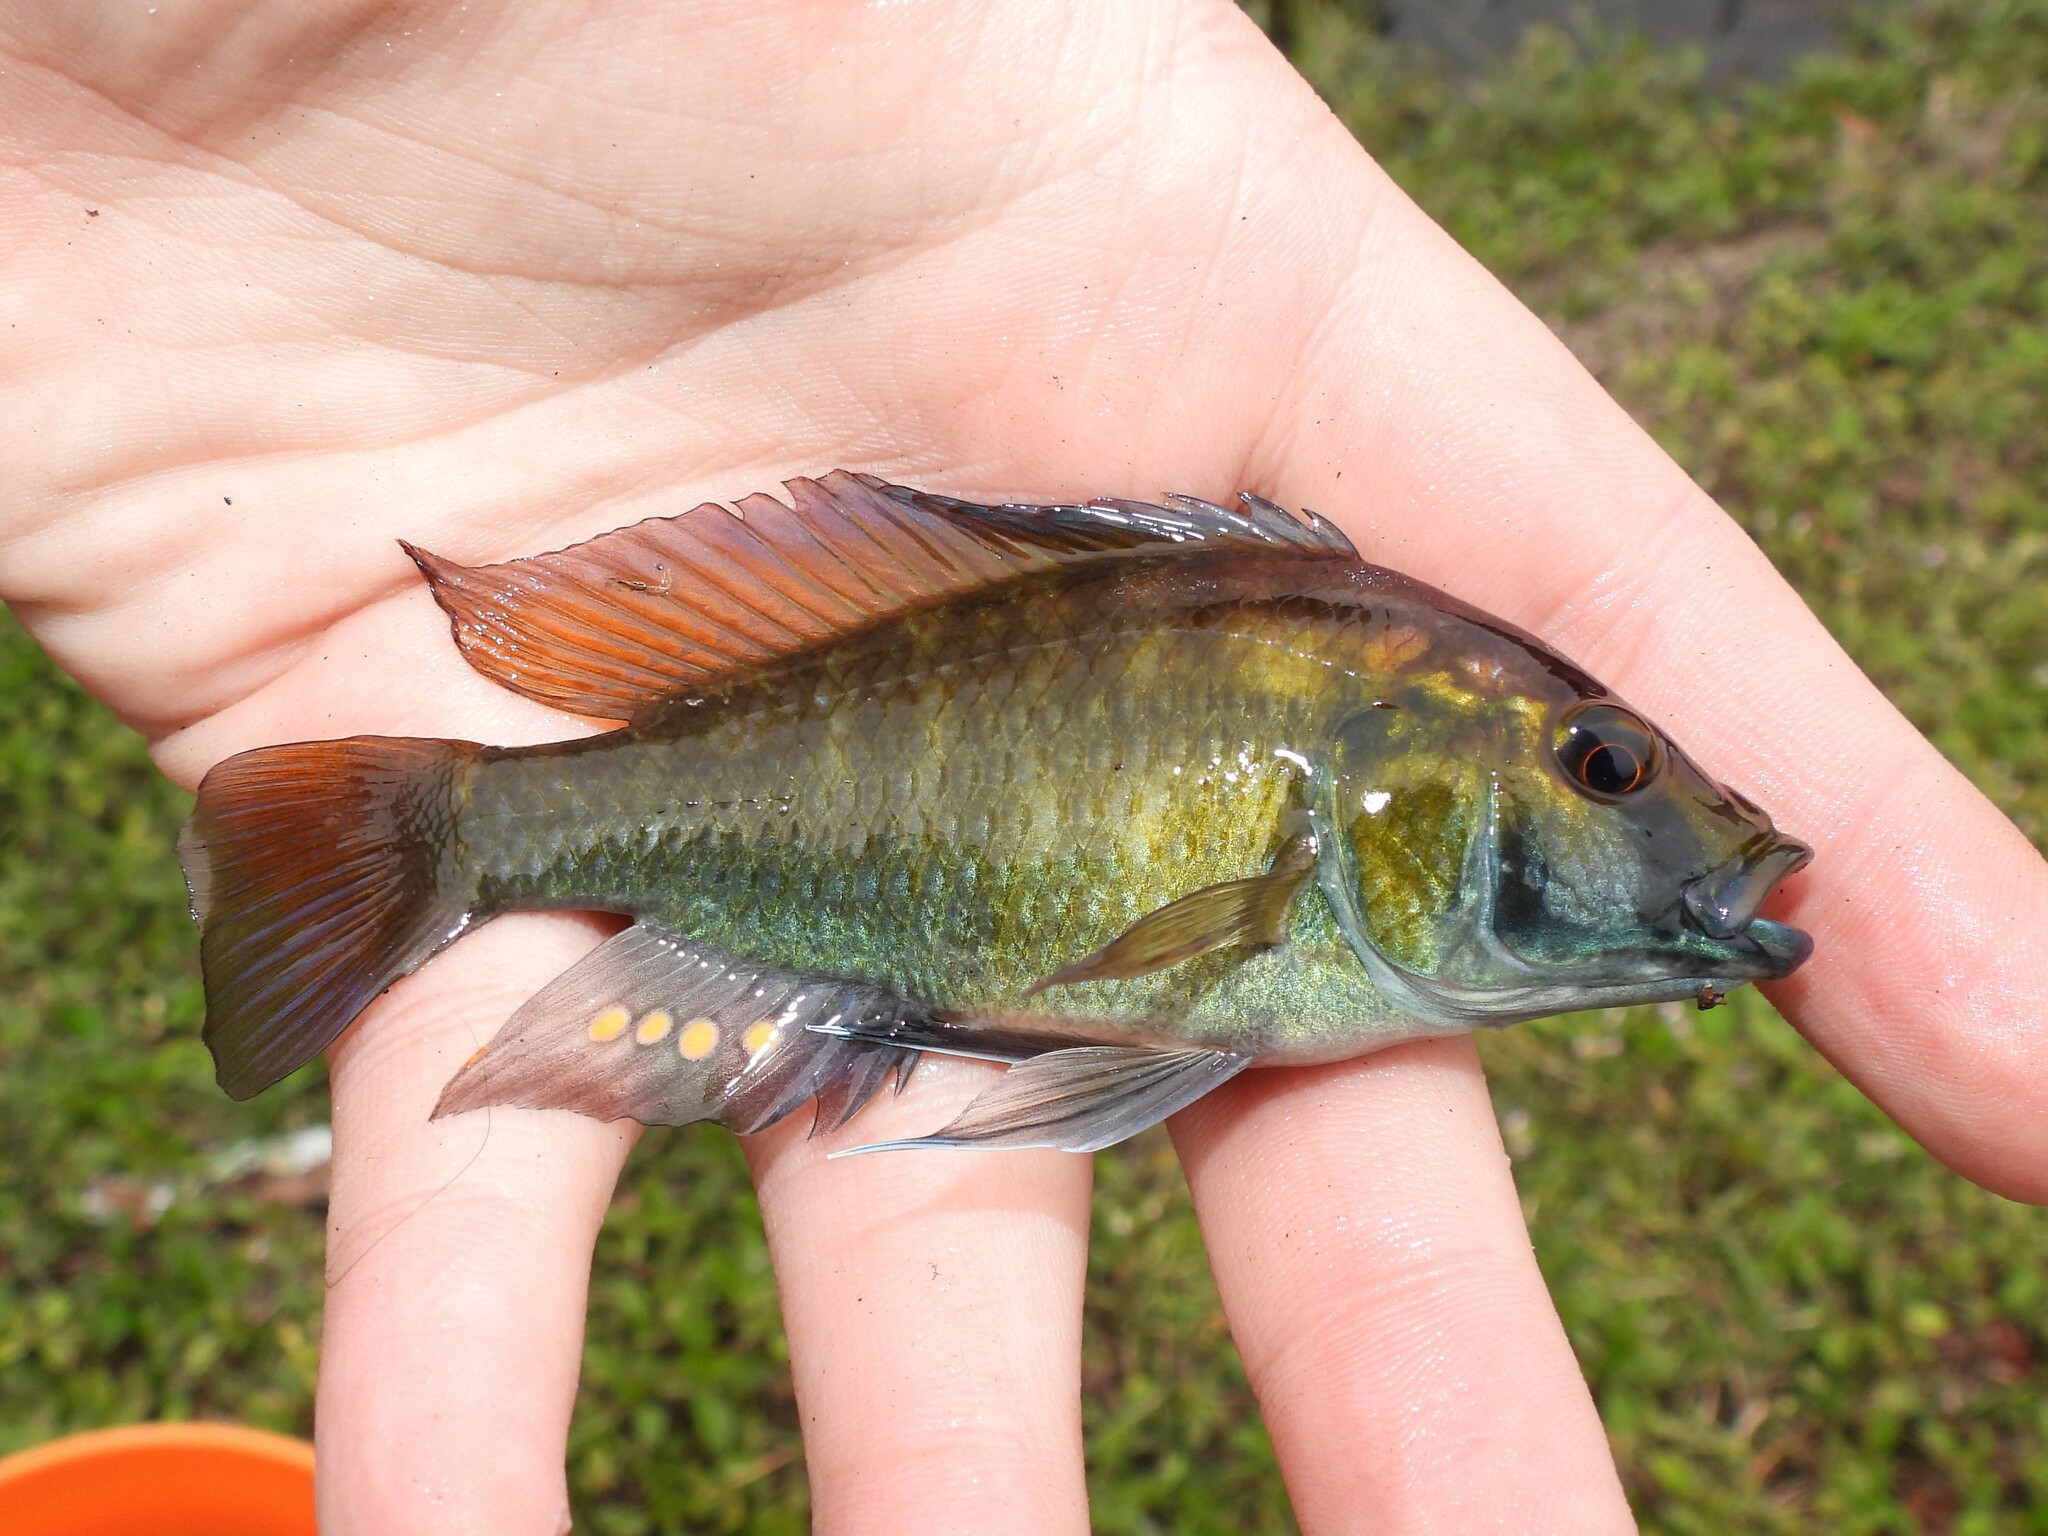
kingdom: Animalia
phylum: Chordata
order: Perciformes
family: Cichlidae
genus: Astatotilapia
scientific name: Astatotilapia calliptera
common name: Eastern happy
